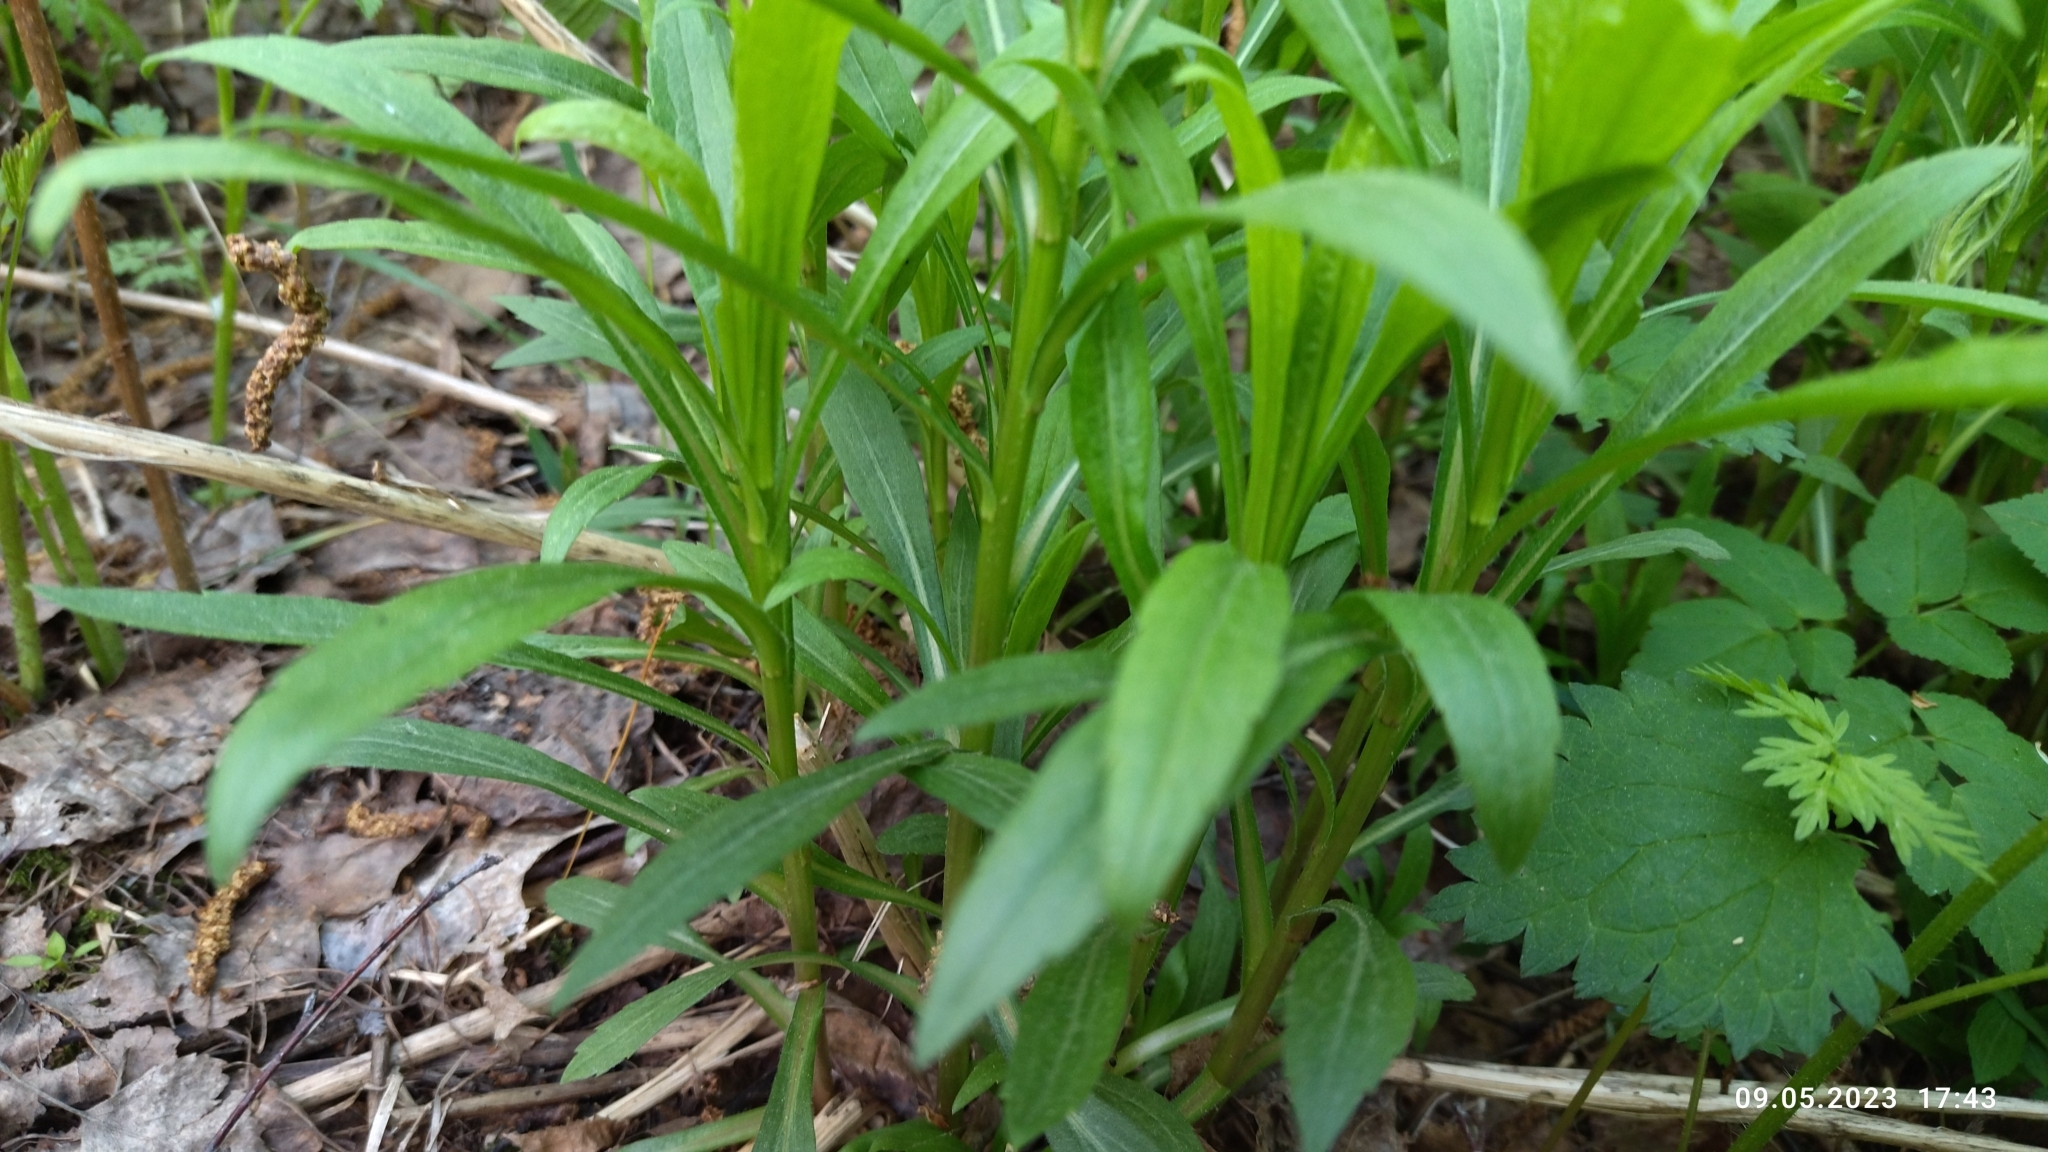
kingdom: Plantae
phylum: Tracheophyta
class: Magnoliopsida
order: Asterales
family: Asteraceae
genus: Solidago
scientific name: Solidago canadensis
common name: Canada goldenrod
